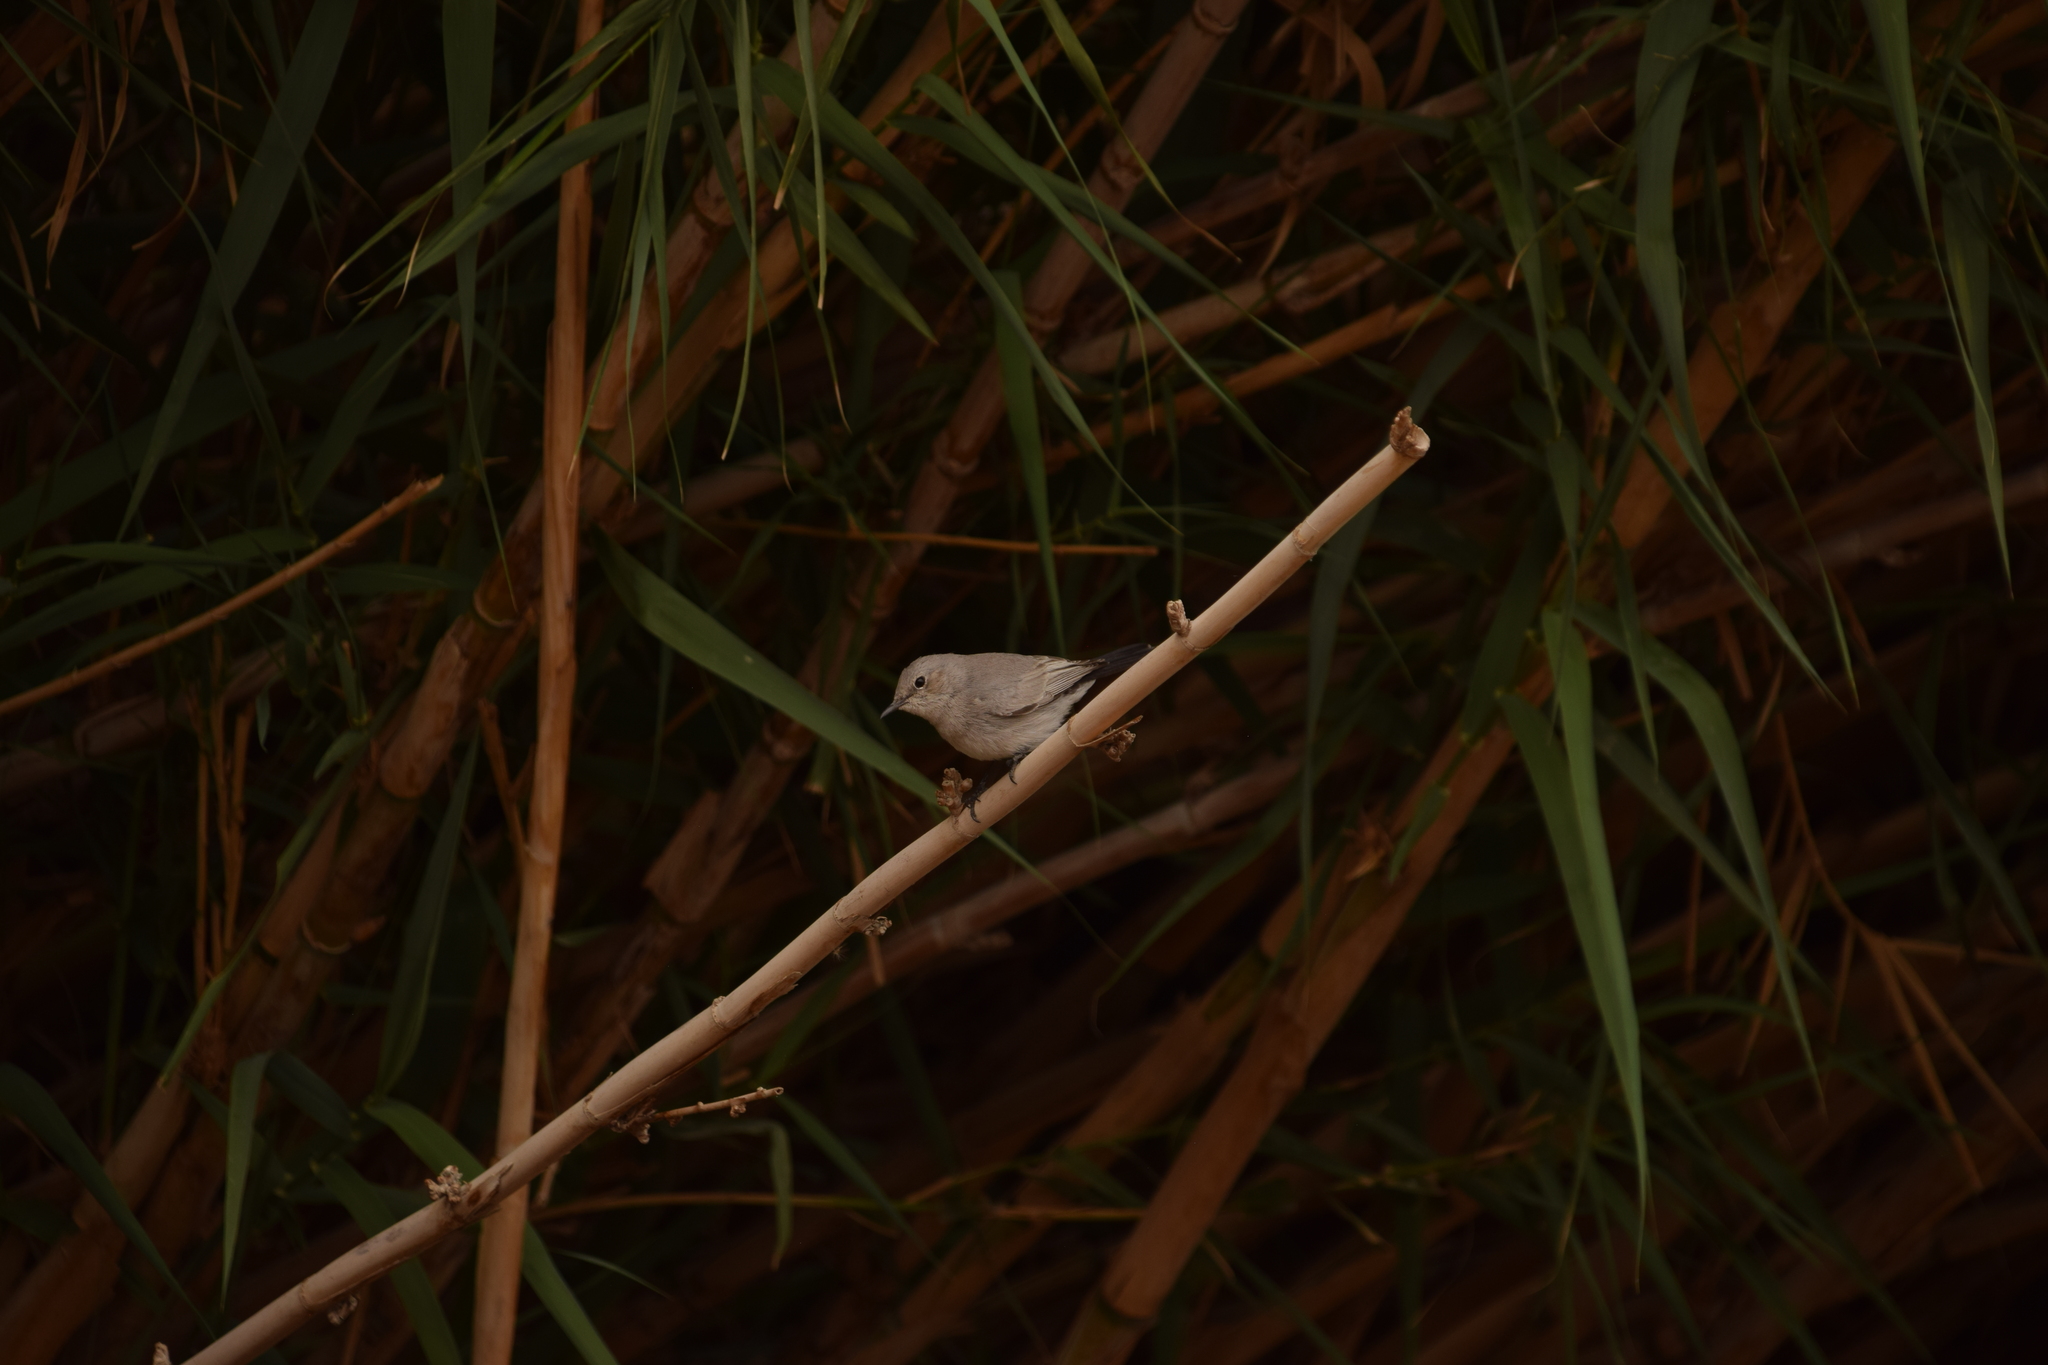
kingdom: Animalia
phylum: Chordata
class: Aves
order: Passeriformes
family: Muscicapidae
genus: Oenanthe
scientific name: Oenanthe melanura
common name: Blackstart
